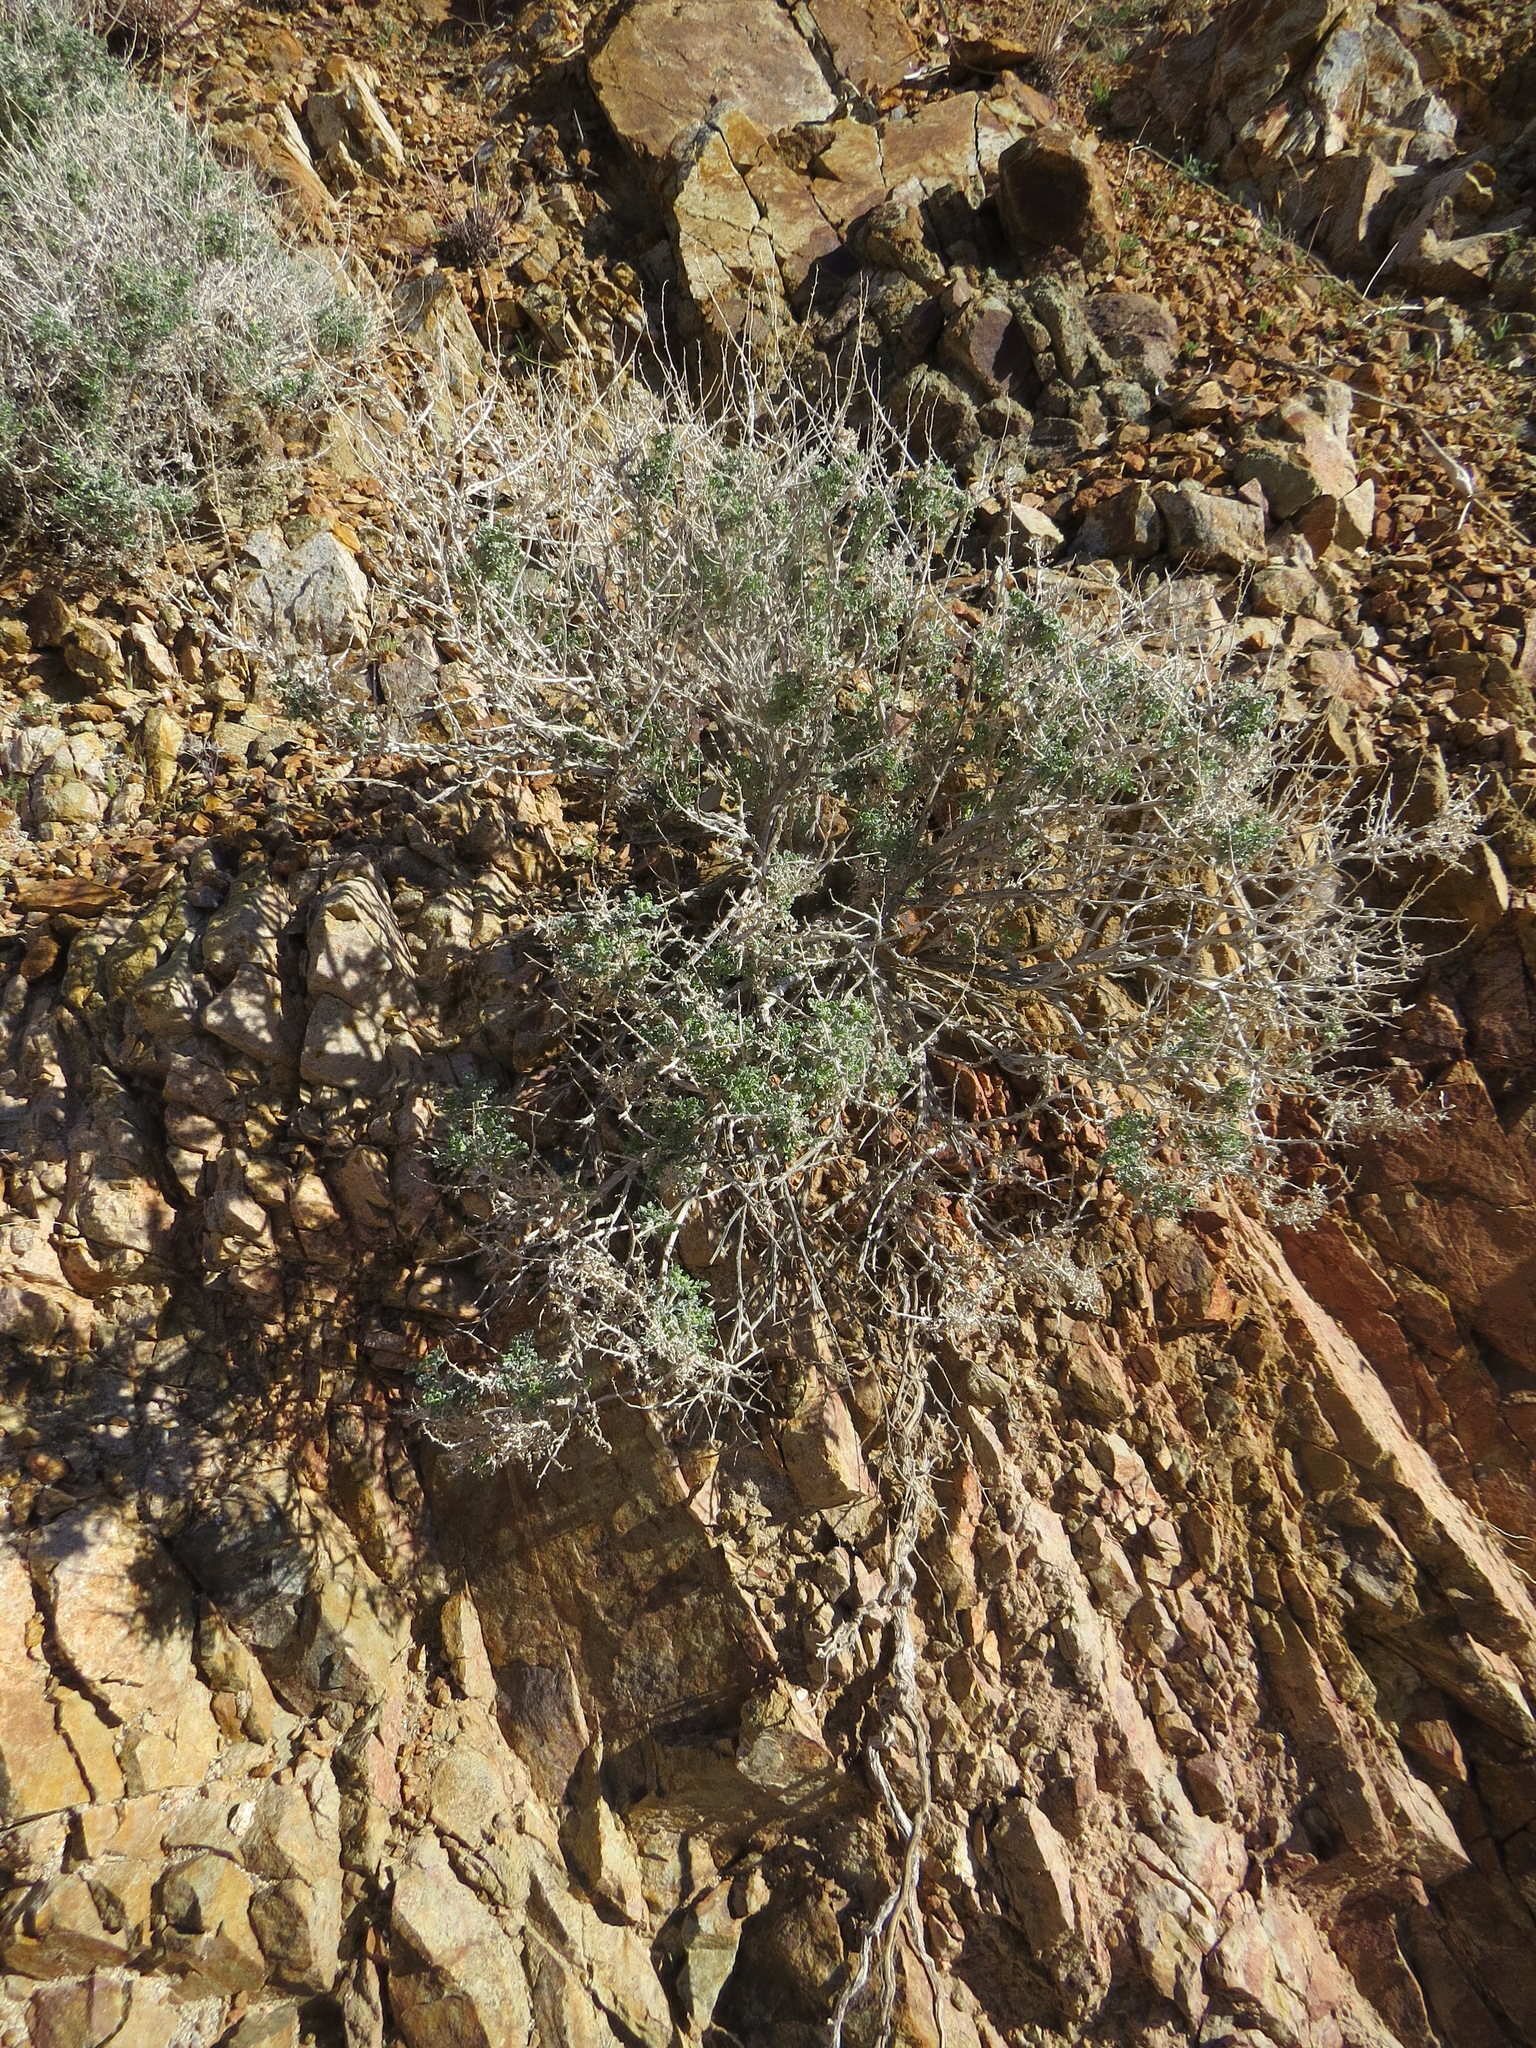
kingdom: Plantae
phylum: Tracheophyta
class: Magnoliopsida
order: Asterales
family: Asteraceae
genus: Ambrosia
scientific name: Ambrosia dumosa
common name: Bur-sage
